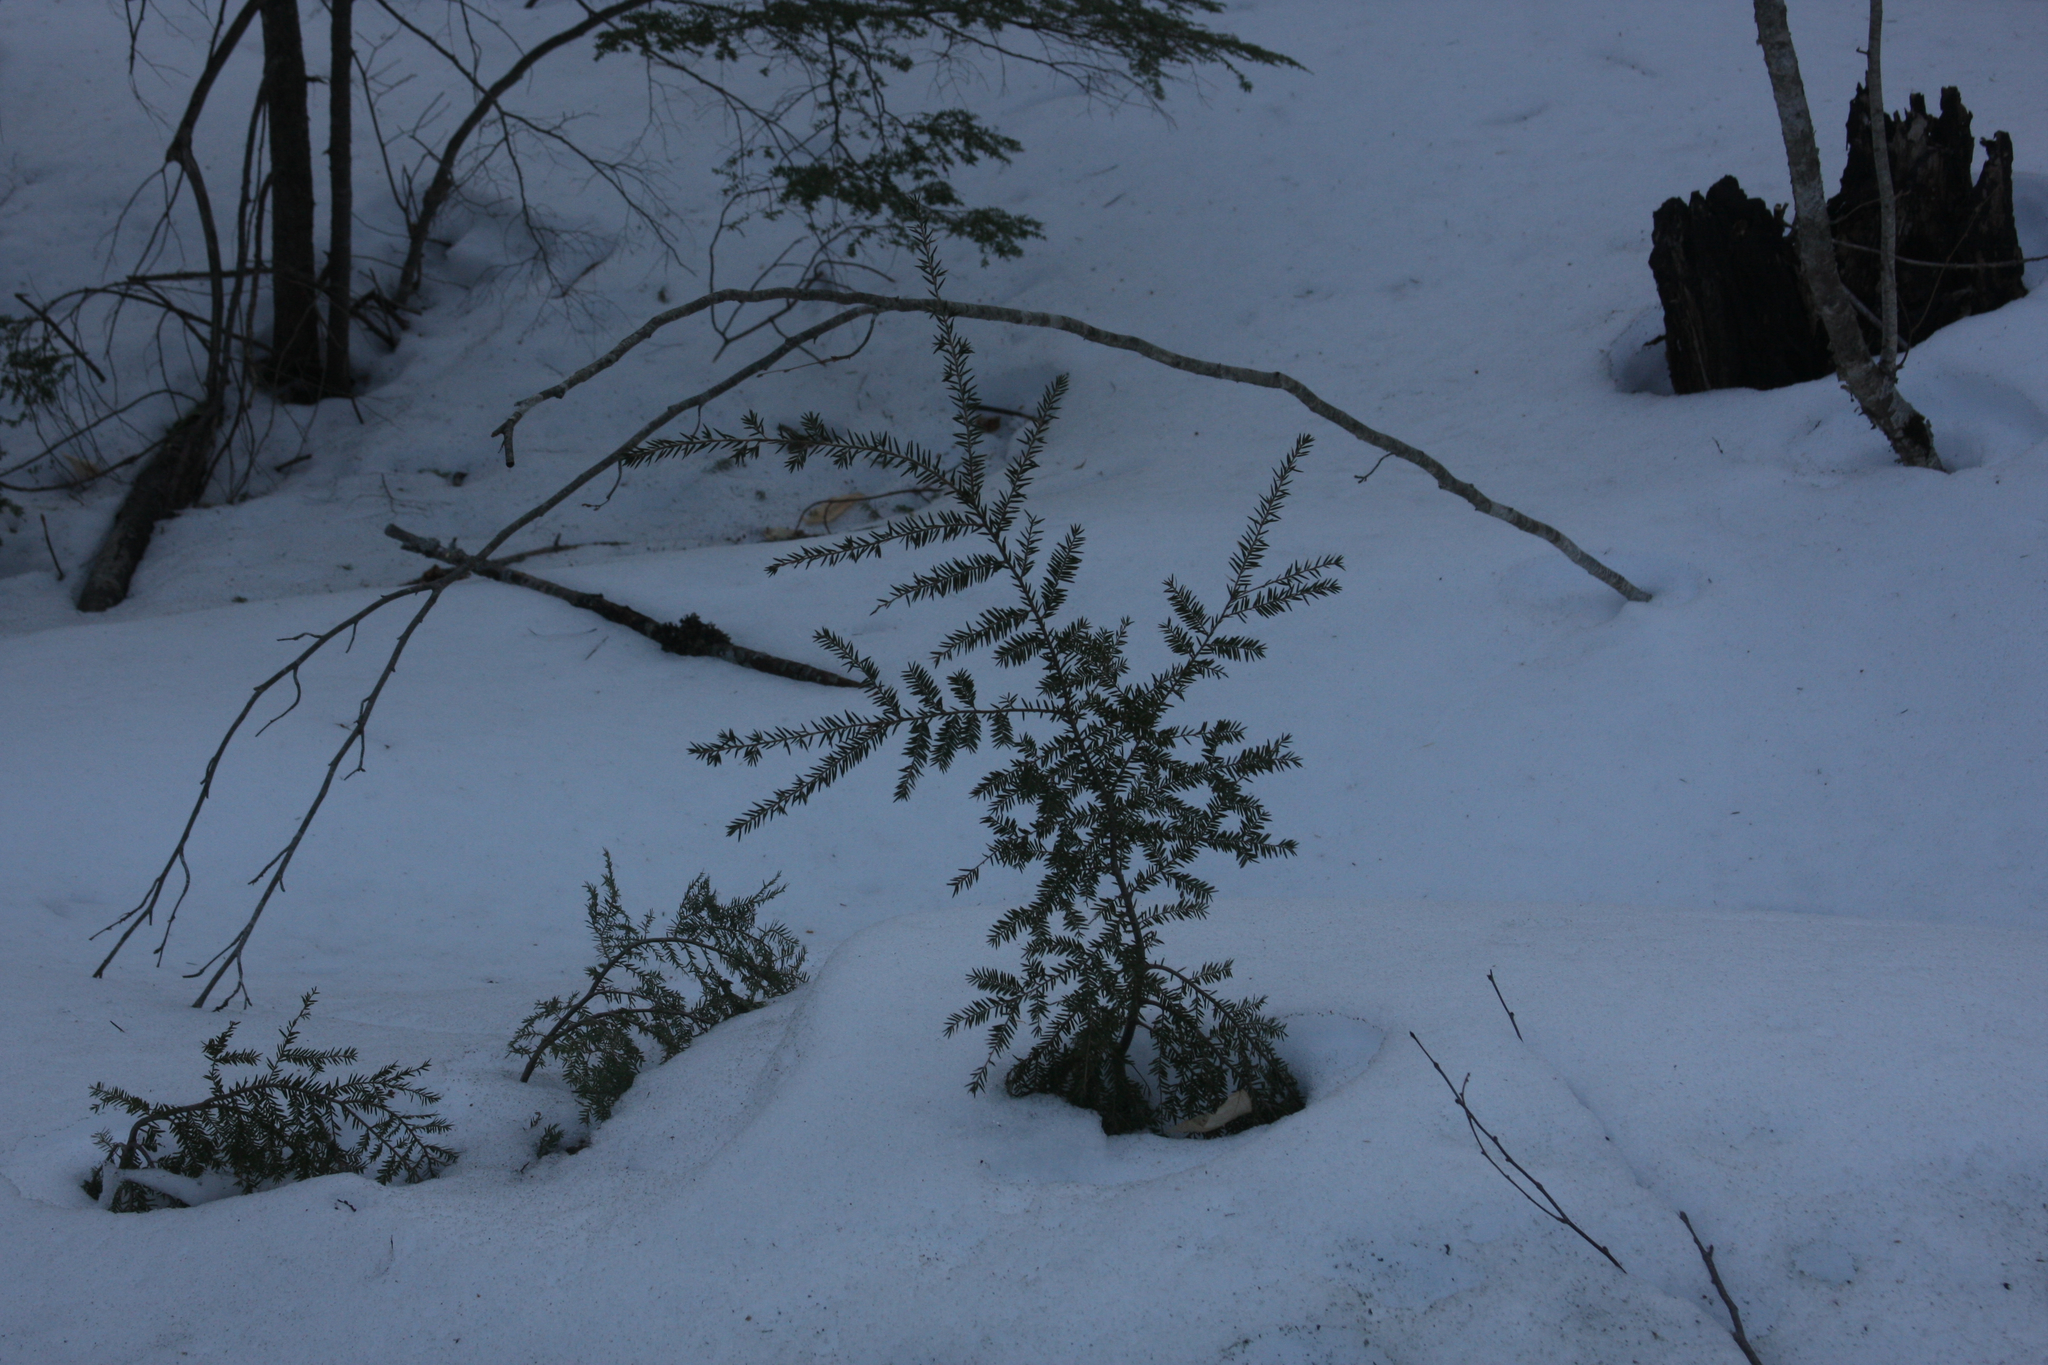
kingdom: Plantae
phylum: Tracheophyta
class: Pinopsida
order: Pinales
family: Pinaceae
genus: Tsuga
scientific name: Tsuga canadensis
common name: Eastern hemlock
